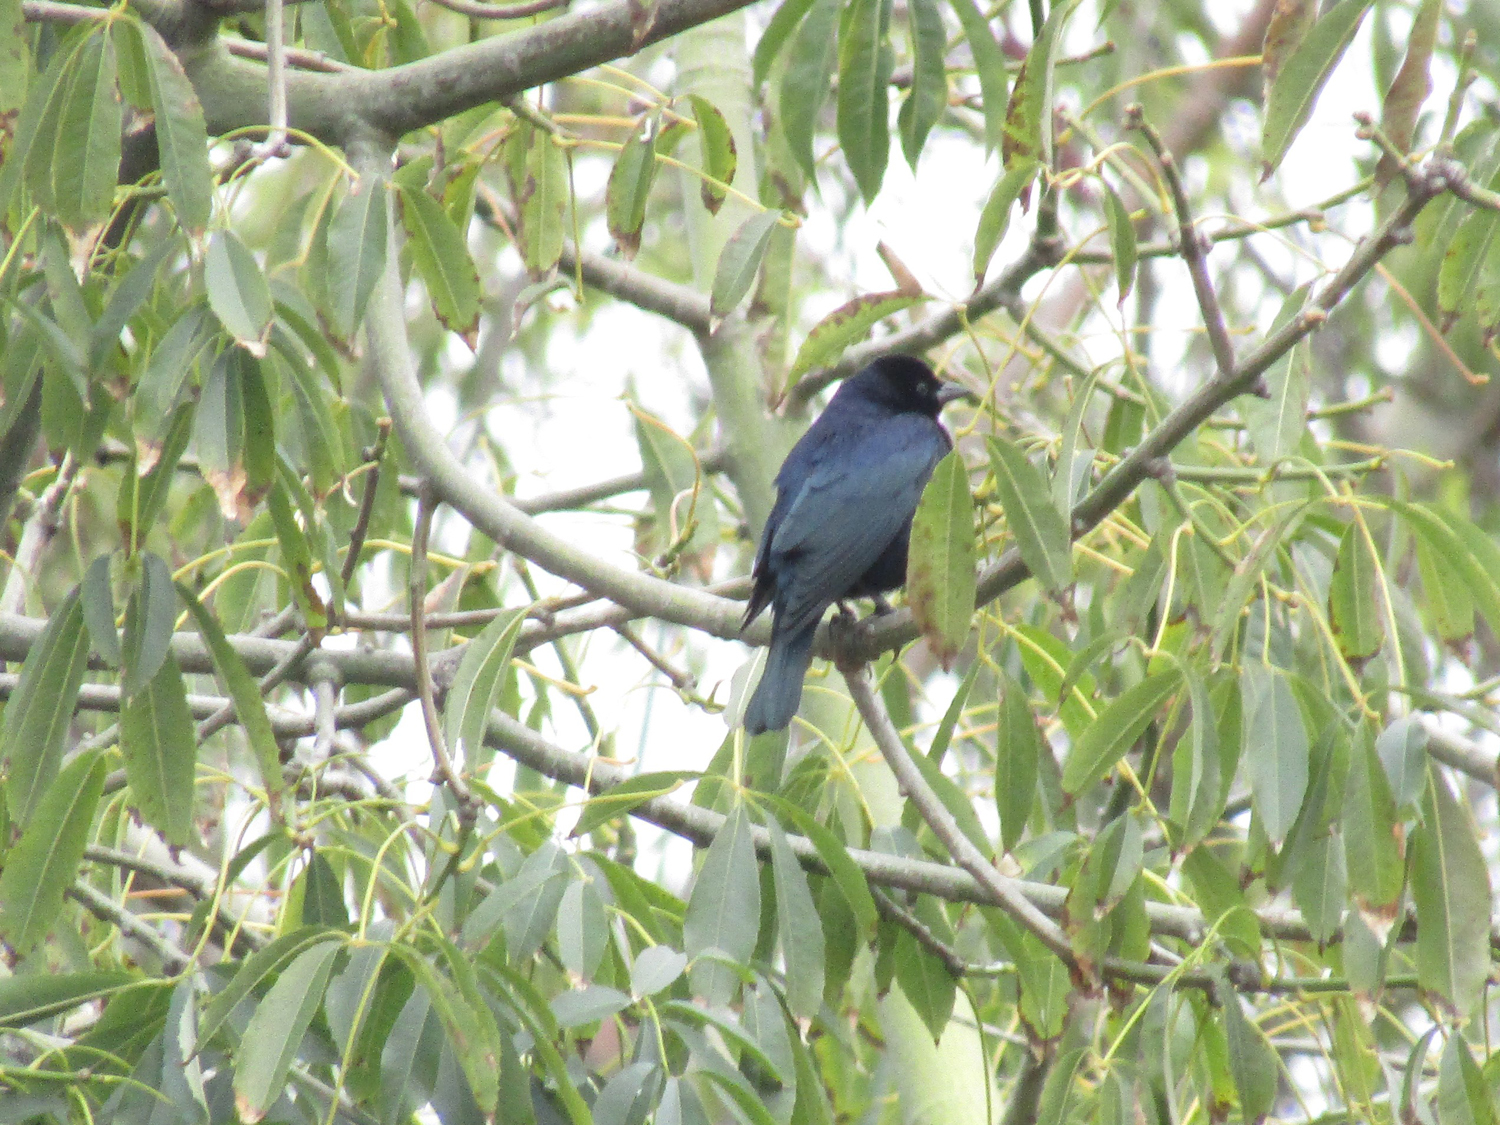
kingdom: Animalia
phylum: Chordata
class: Aves
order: Passeriformes
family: Icteridae
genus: Molothrus
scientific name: Molothrus bonariensis
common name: Shiny cowbird
